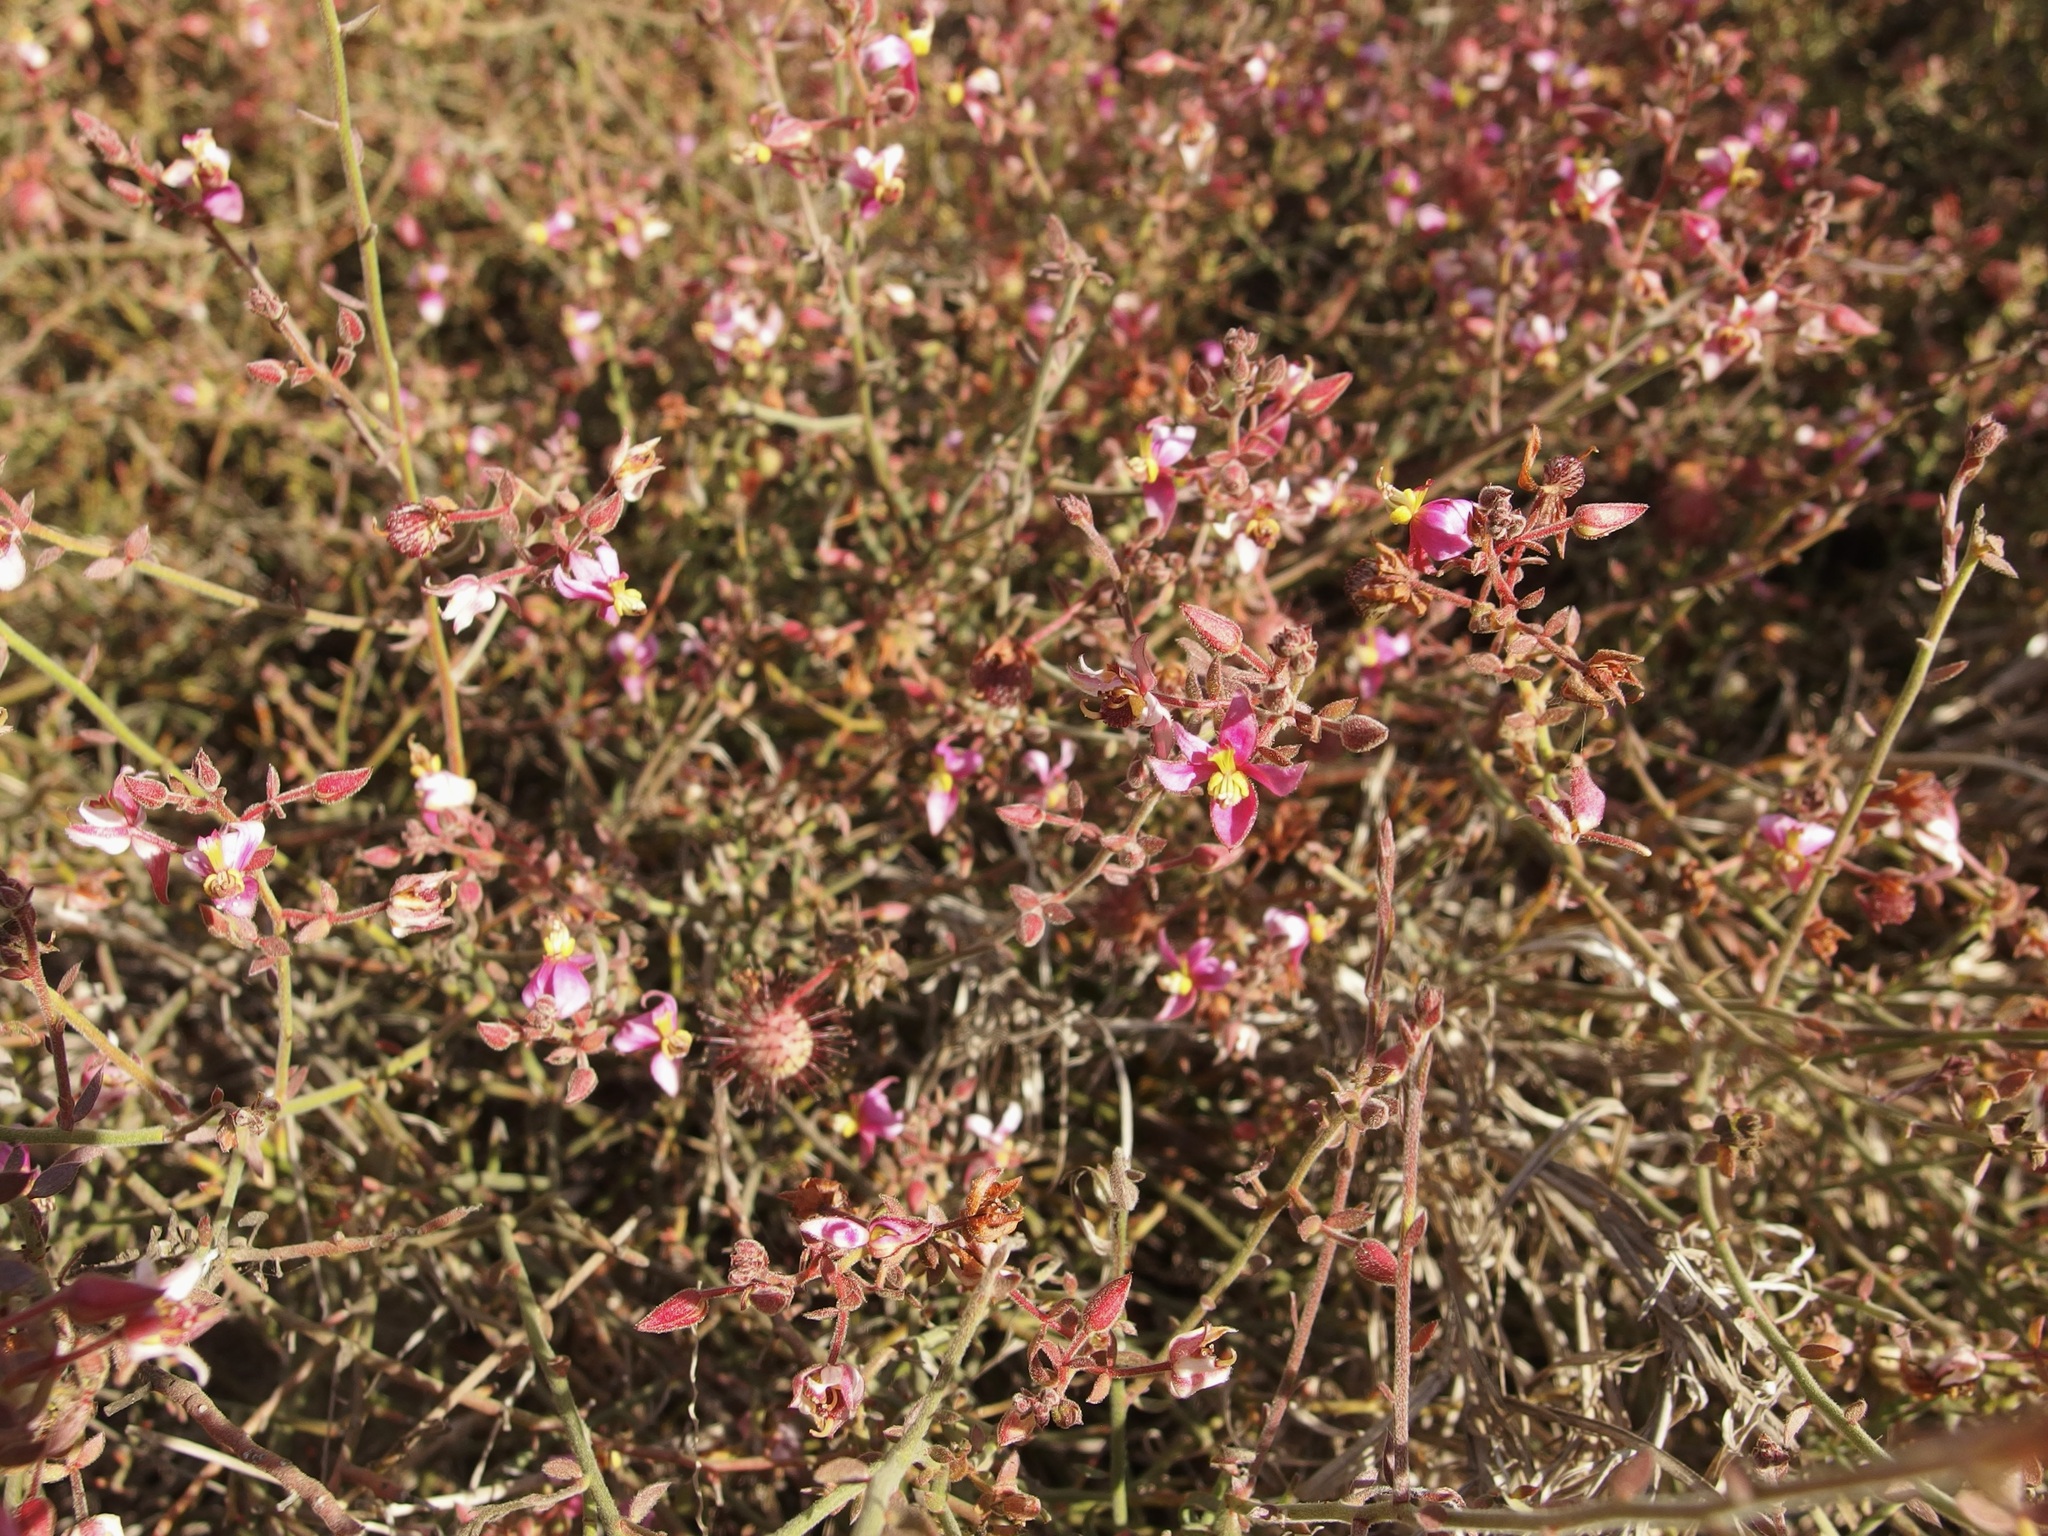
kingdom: Plantae
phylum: Tracheophyta
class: Magnoliopsida
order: Zygophyllales
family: Krameriaceae
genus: Krameria
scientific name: Krameria paucifolia
